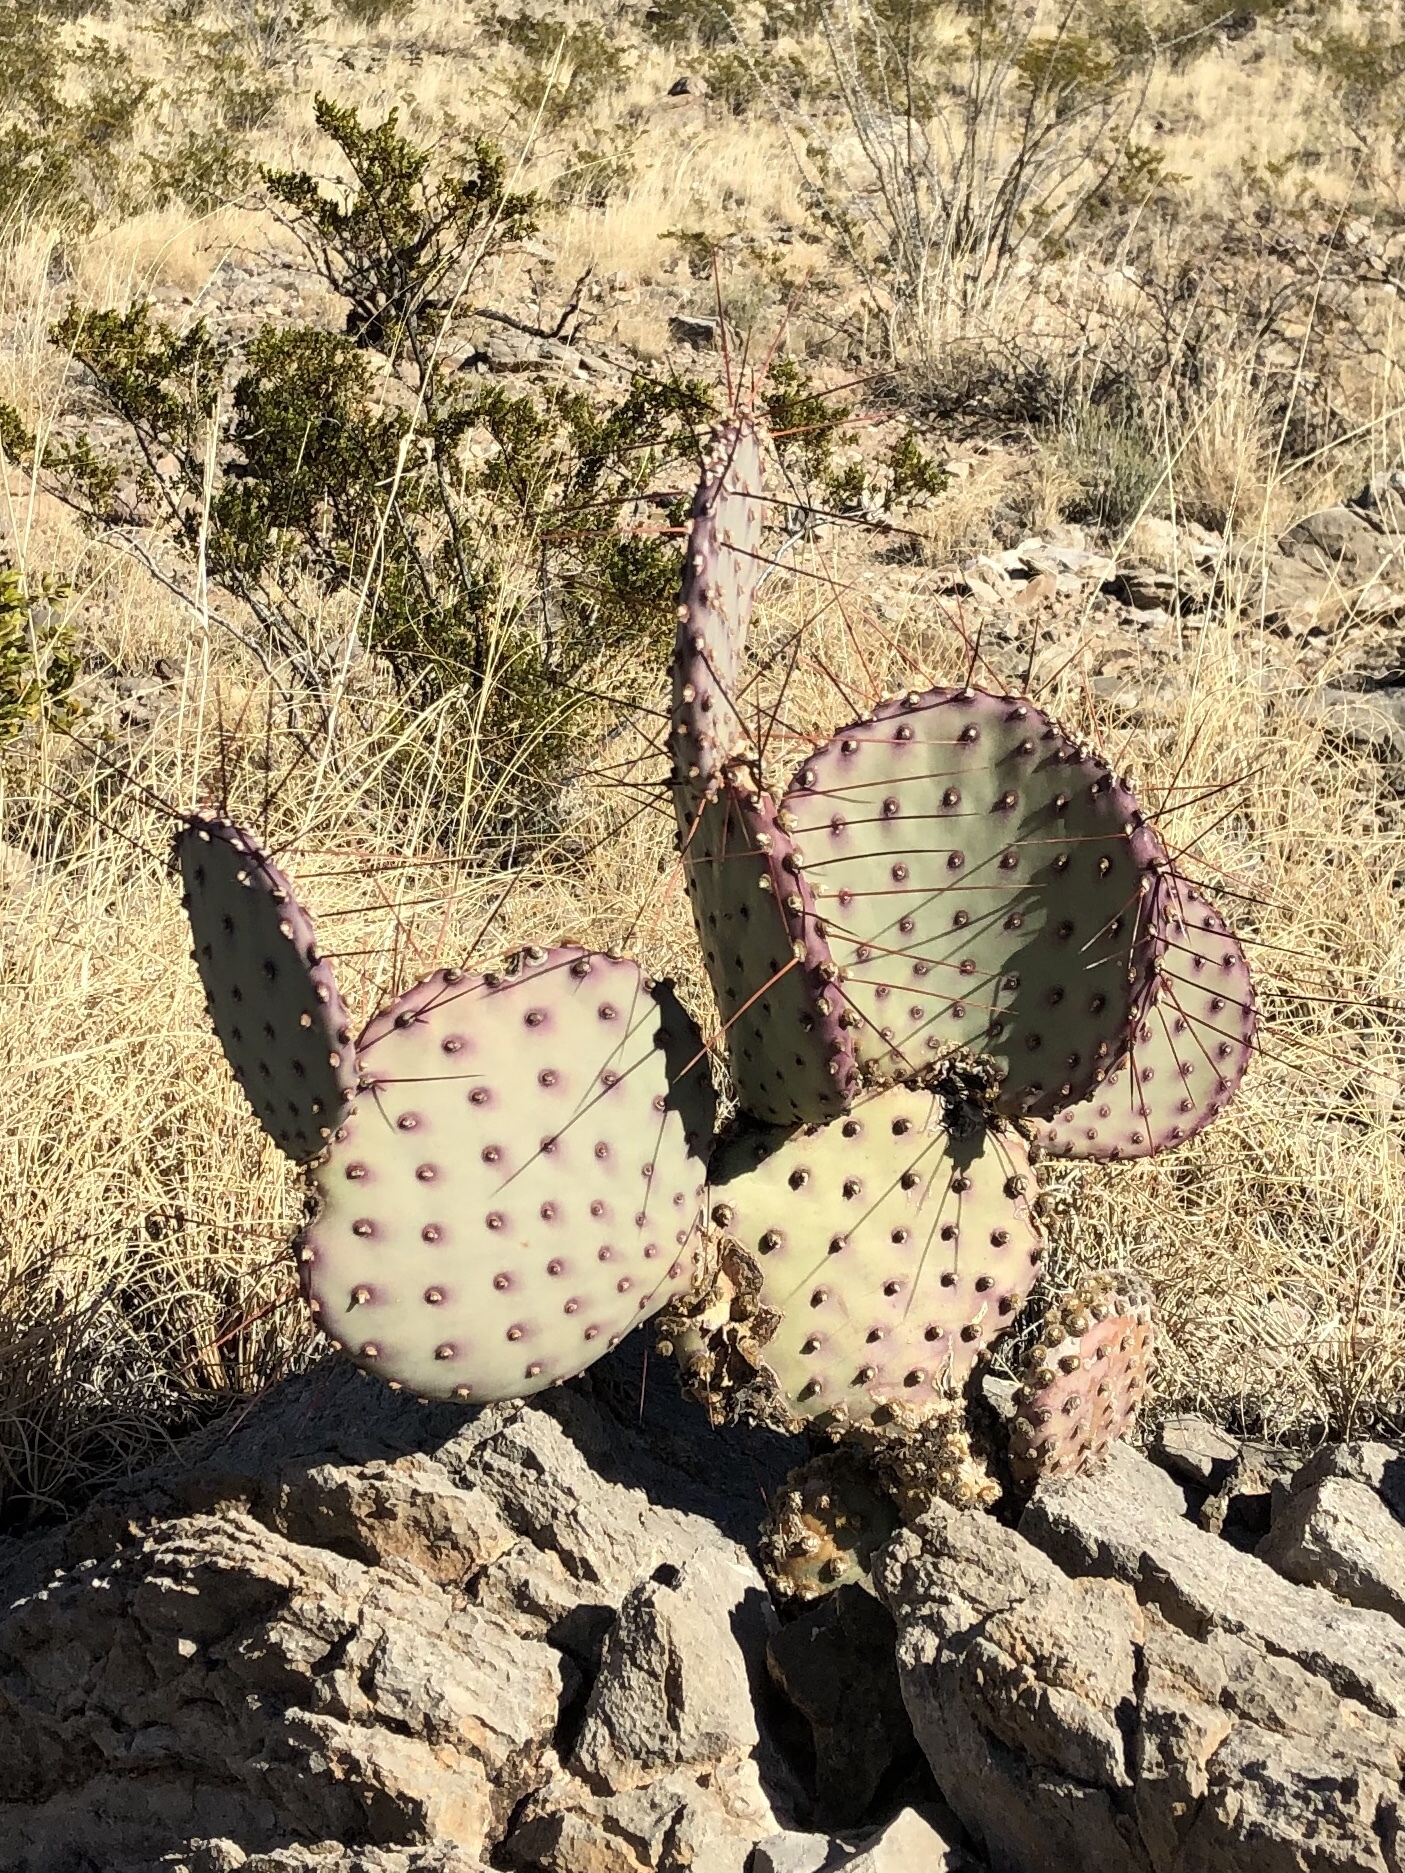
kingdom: Plantae
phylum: Tracheophyta
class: Magnoliopsida
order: Caryophyllales
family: Cactaceae
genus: Opuntia
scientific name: Opuntia macrocentra
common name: Purple prickly-pear
